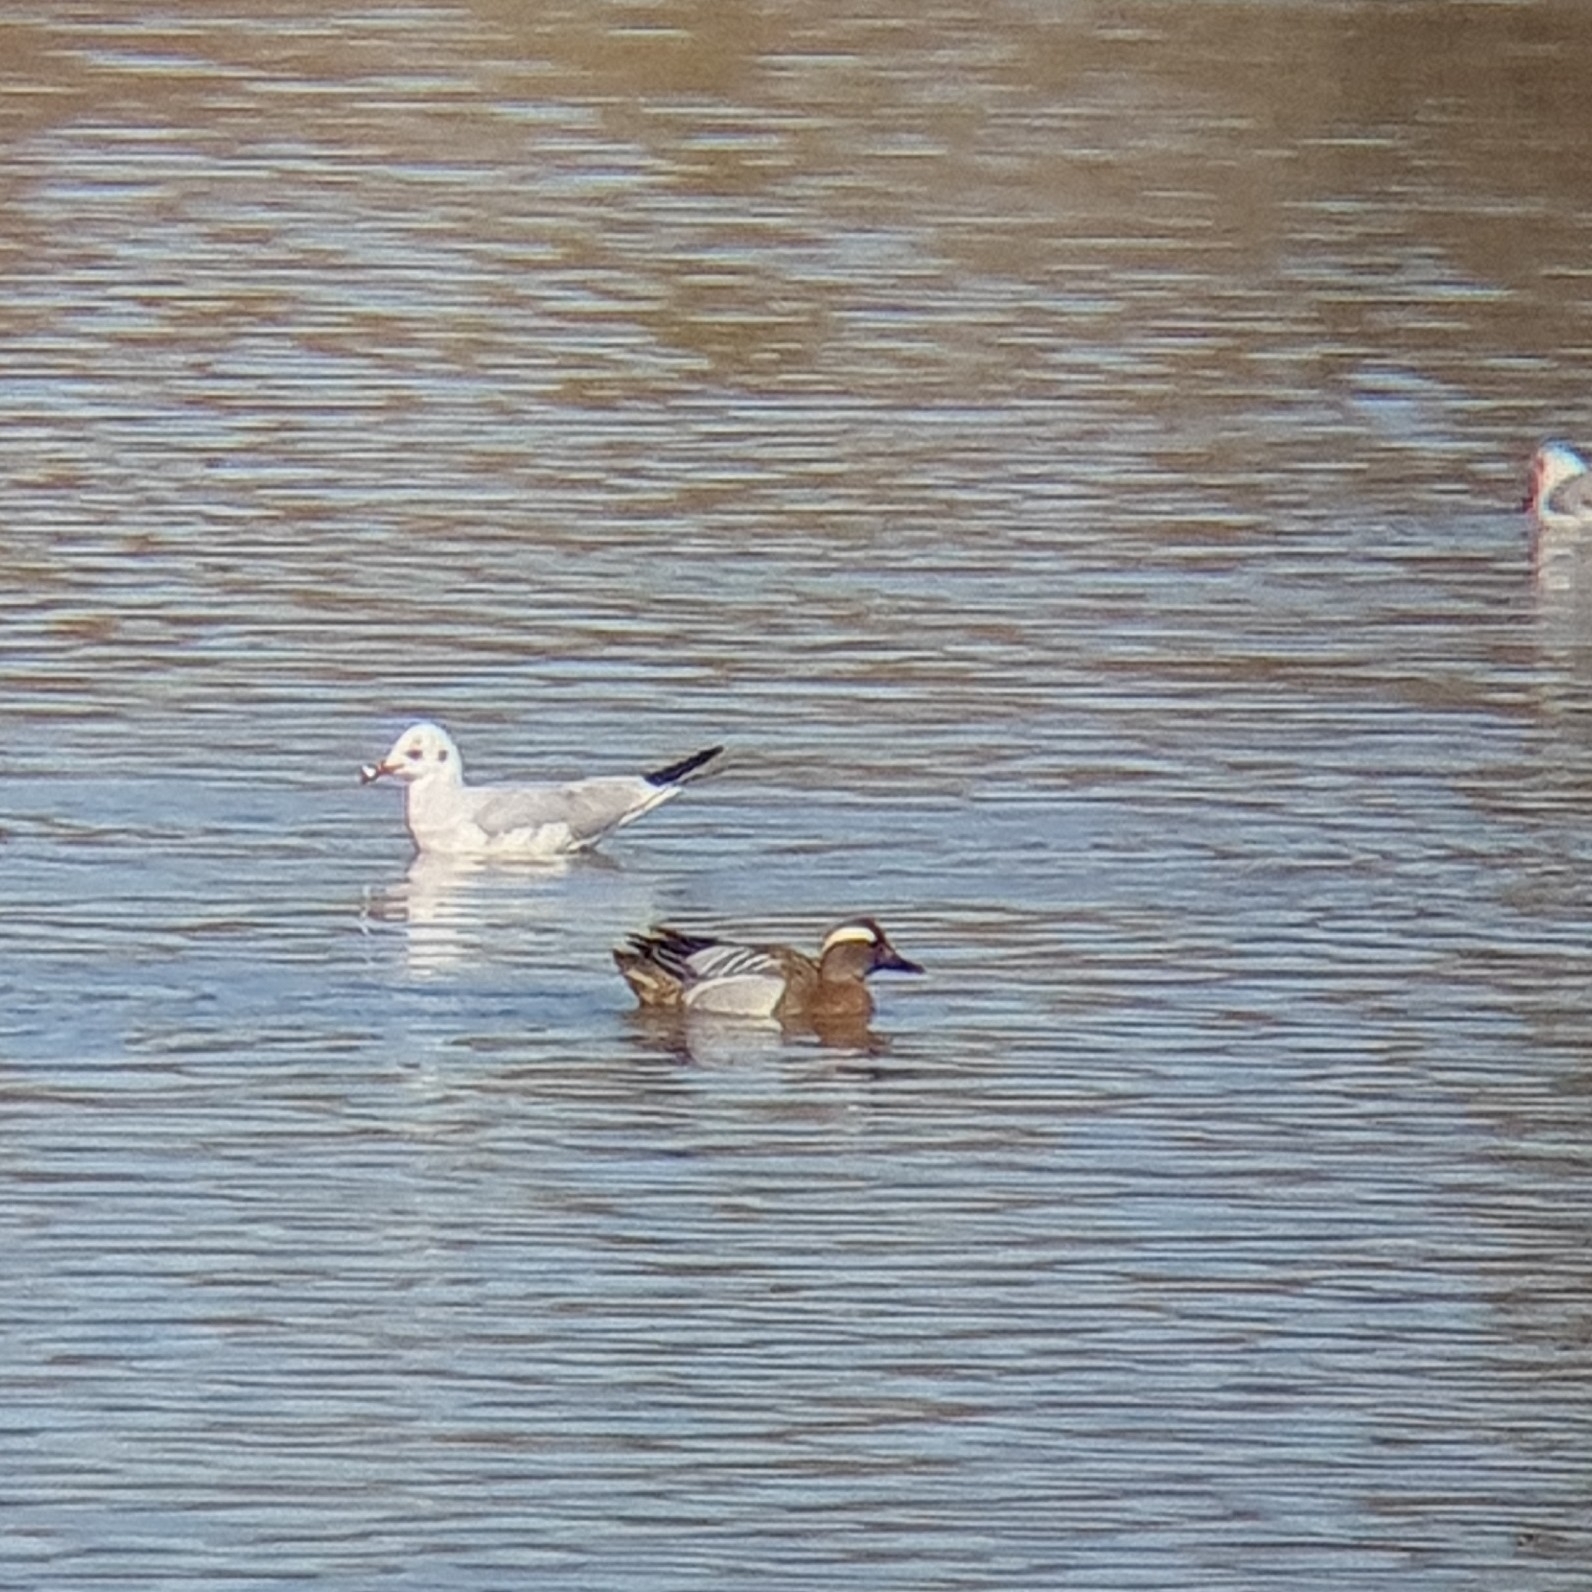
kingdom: Animalia
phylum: Chordata
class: Aves
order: Anseriformes
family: Anatidae
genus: Spatula
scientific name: Spatula querquedula
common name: Garganey
